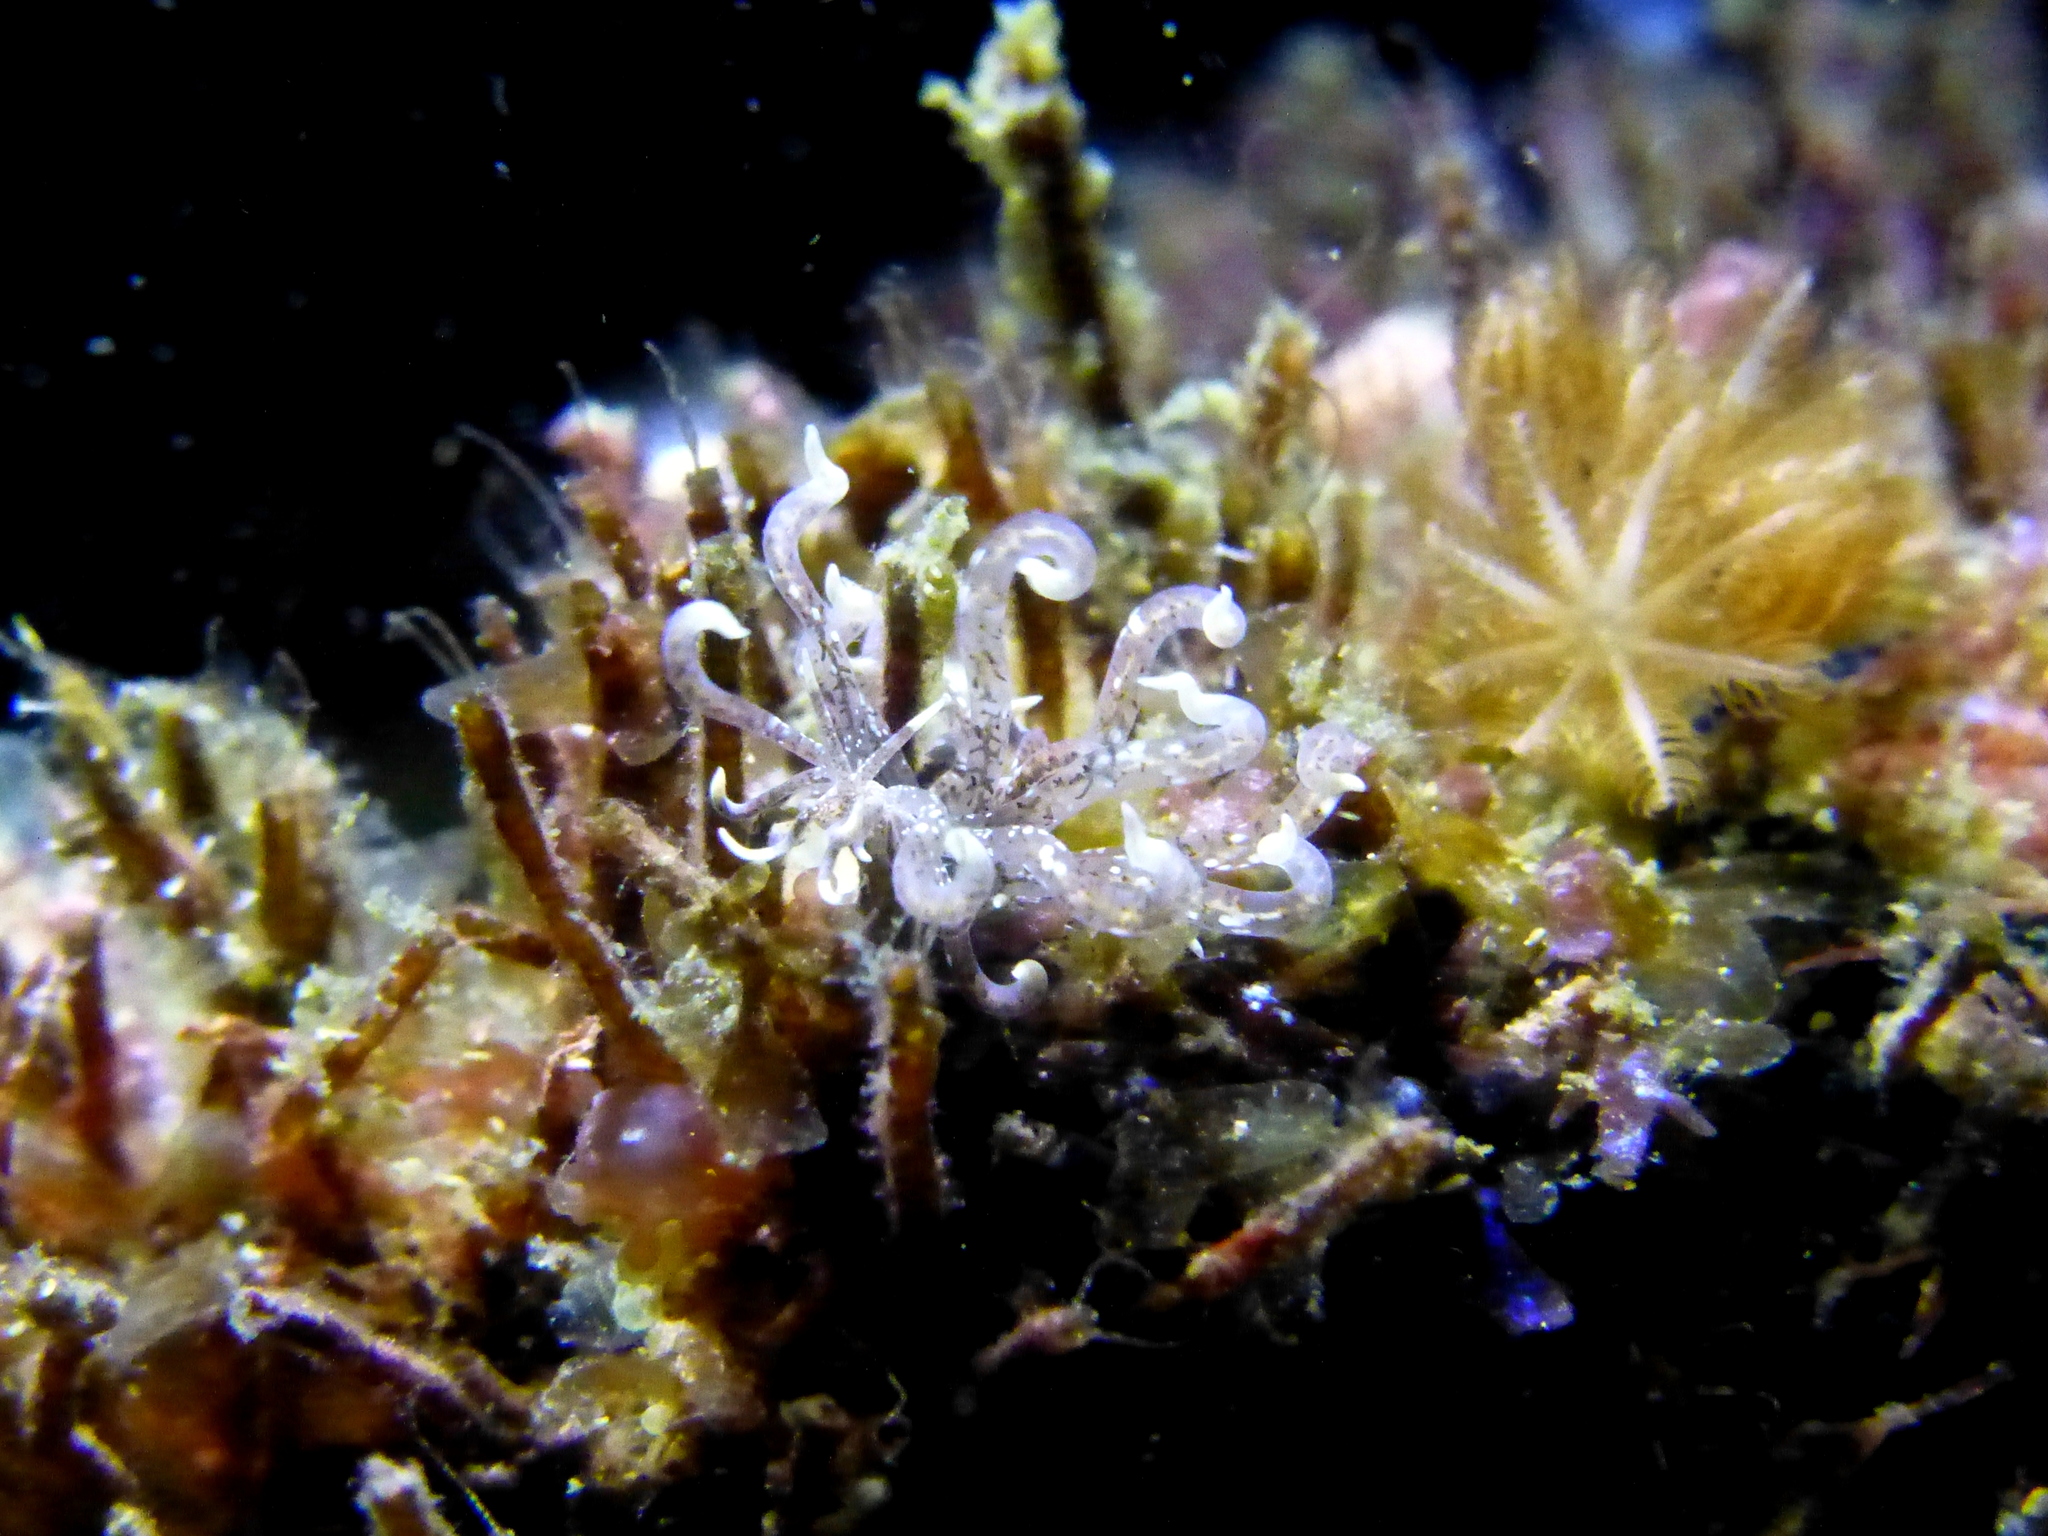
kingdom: Animalia
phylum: Mollusca
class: Gastropoda
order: Nudibranchia
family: Myrrhinidae
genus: Phyllodesmium
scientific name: Phyllodesmium poindimiei
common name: Sea slug
